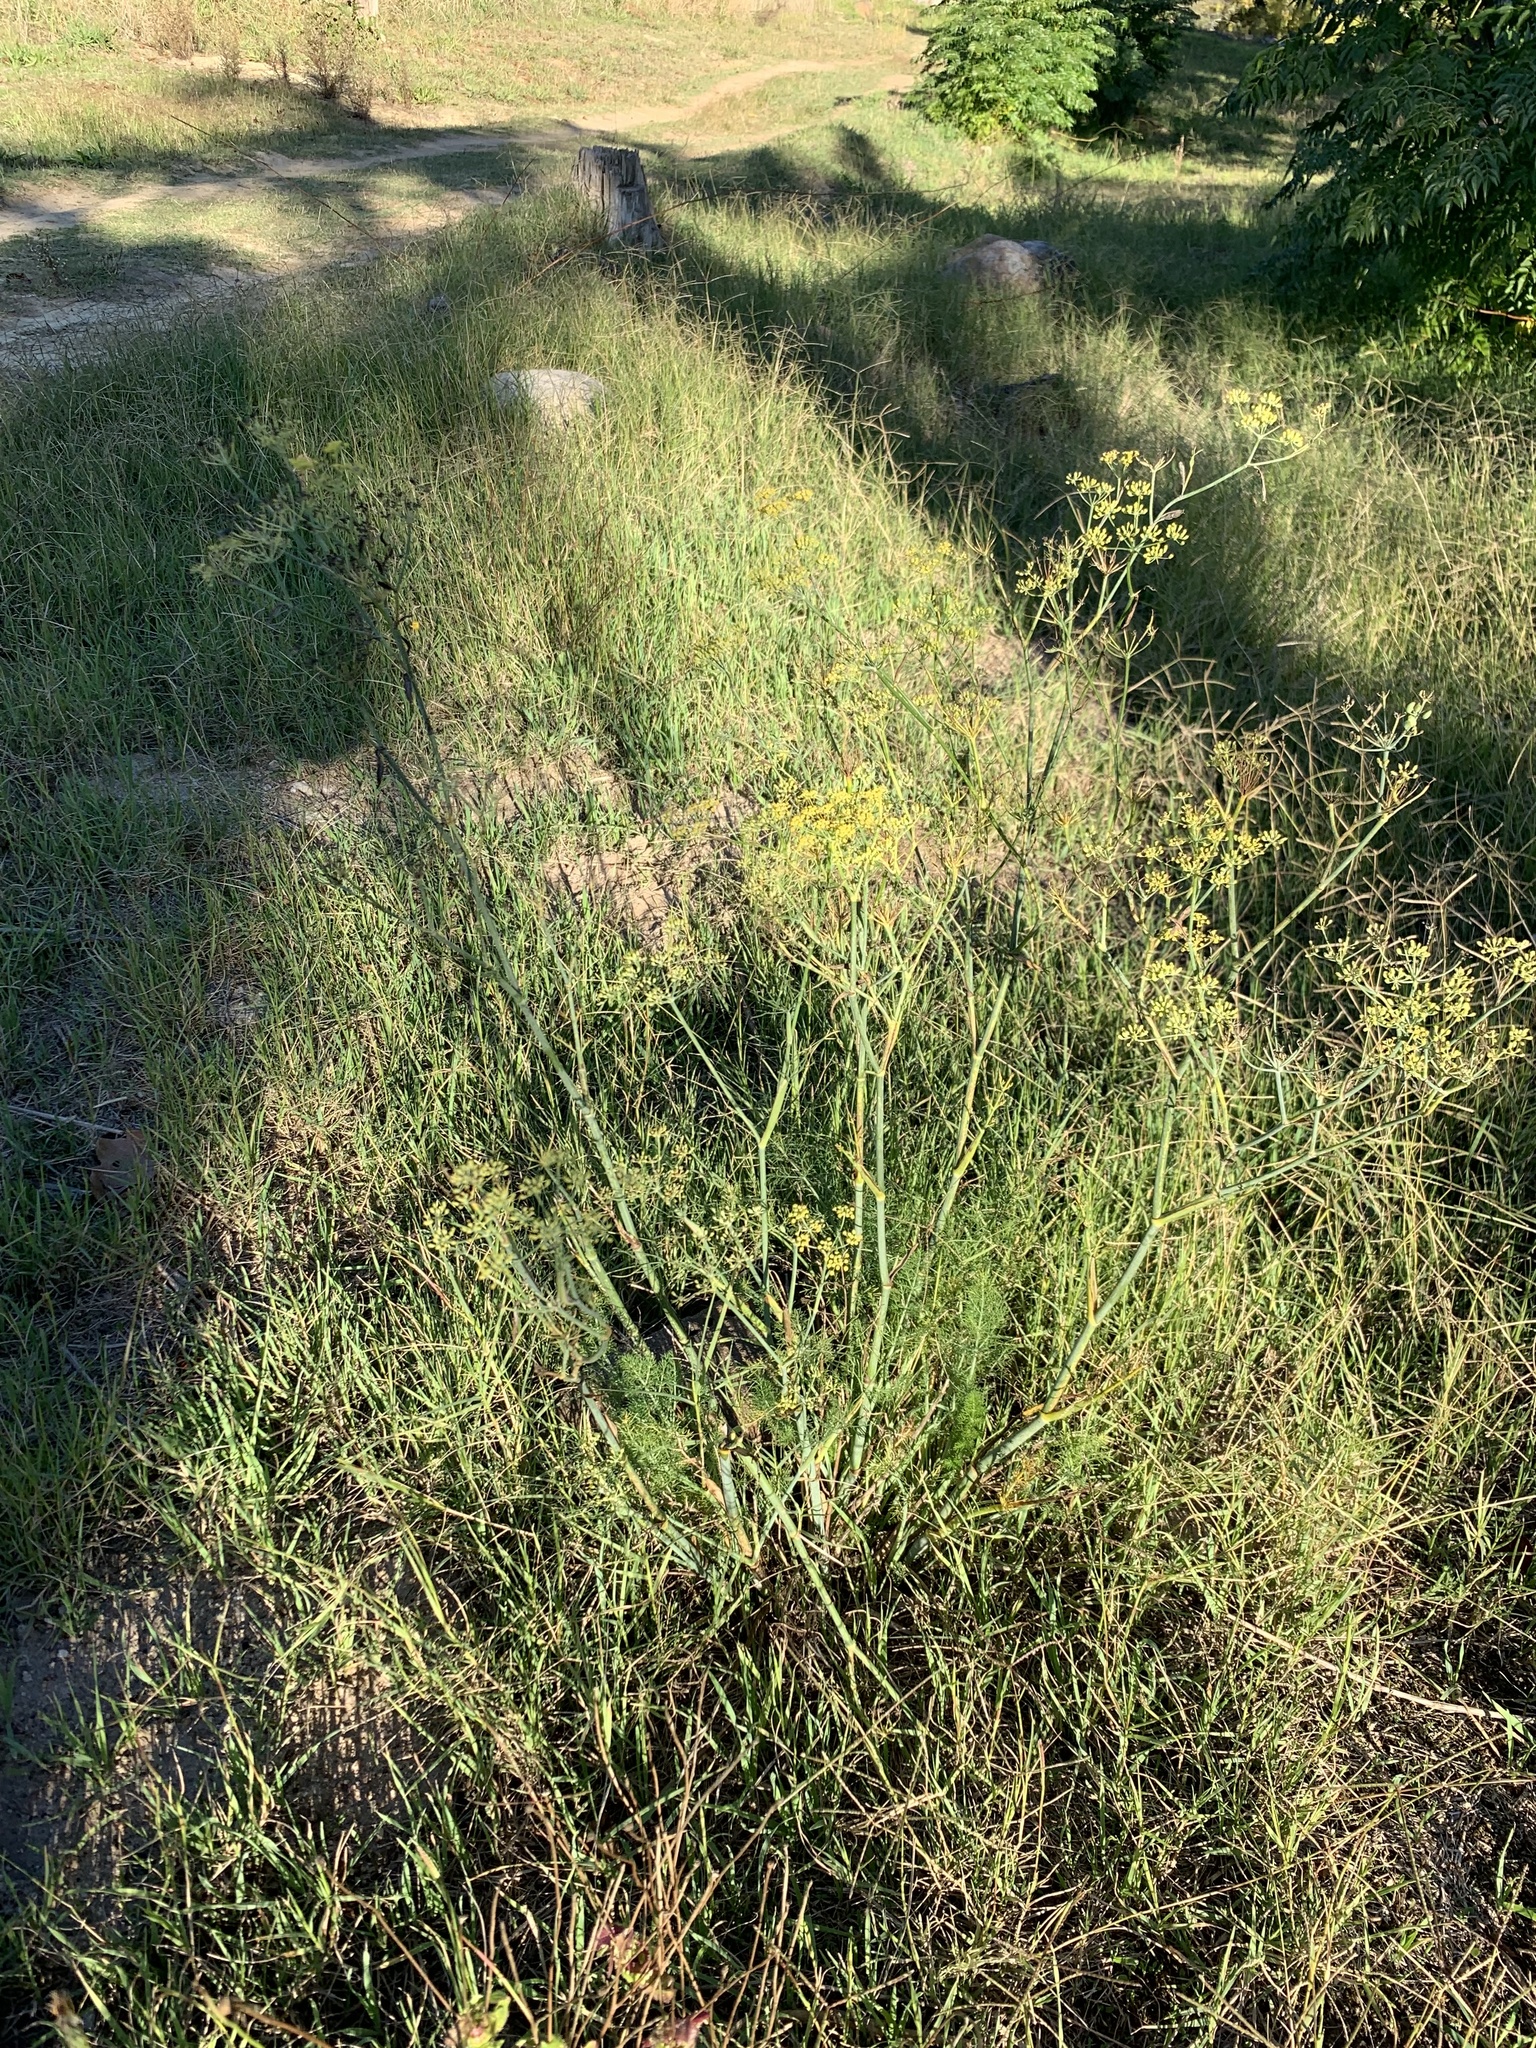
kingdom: Plantae
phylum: Tracheophyta
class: Magnoliopsida
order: Apiales
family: Apiaceae
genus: Foeniculum
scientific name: Foeniculum vulgare
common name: Fennel
